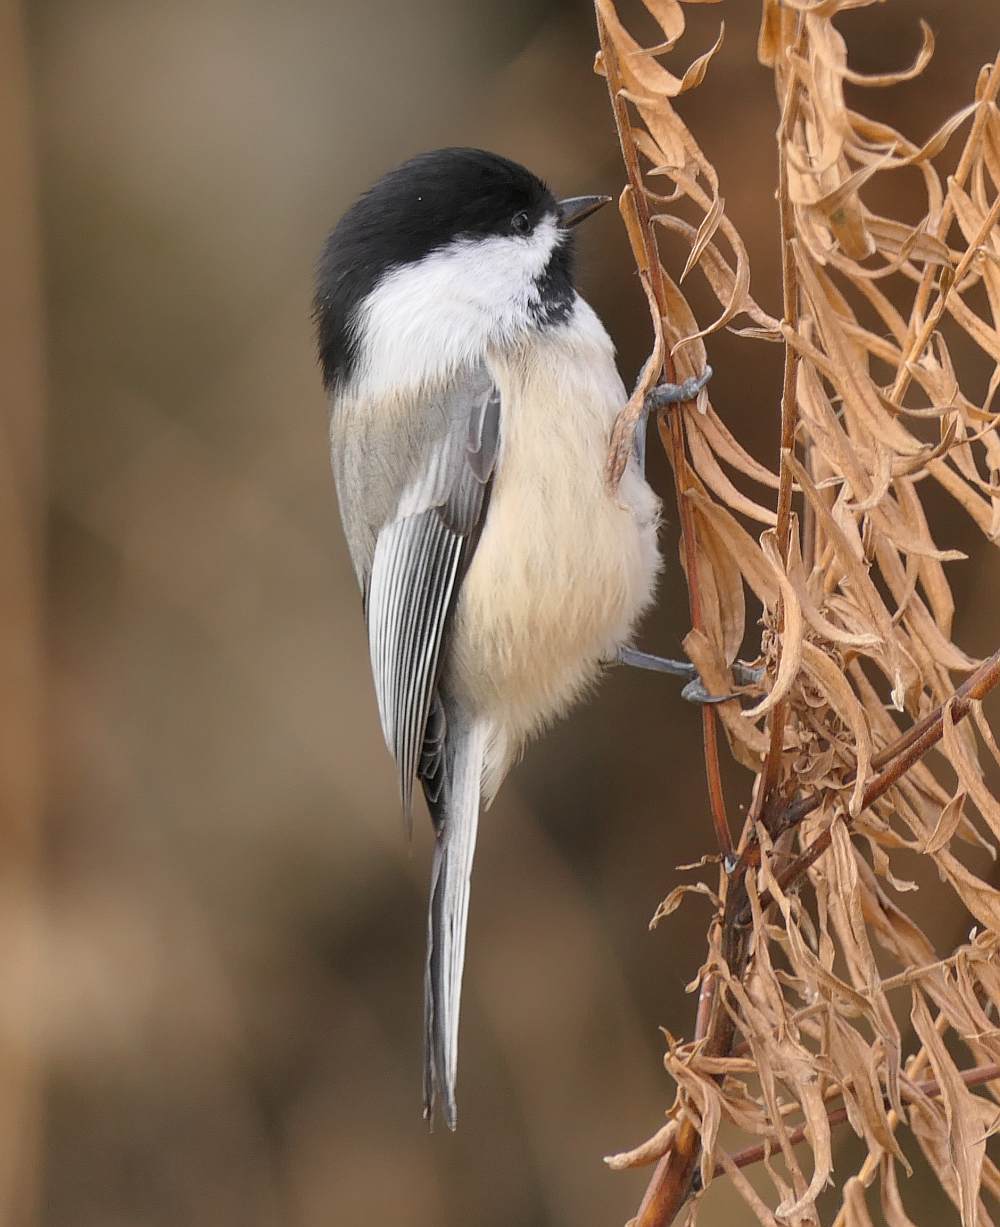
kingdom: Animalia
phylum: Chordata
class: Aves
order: Passeriformes
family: Paridae
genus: Poecile
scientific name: Poecile atricapillus
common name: Black-capped chickadee
